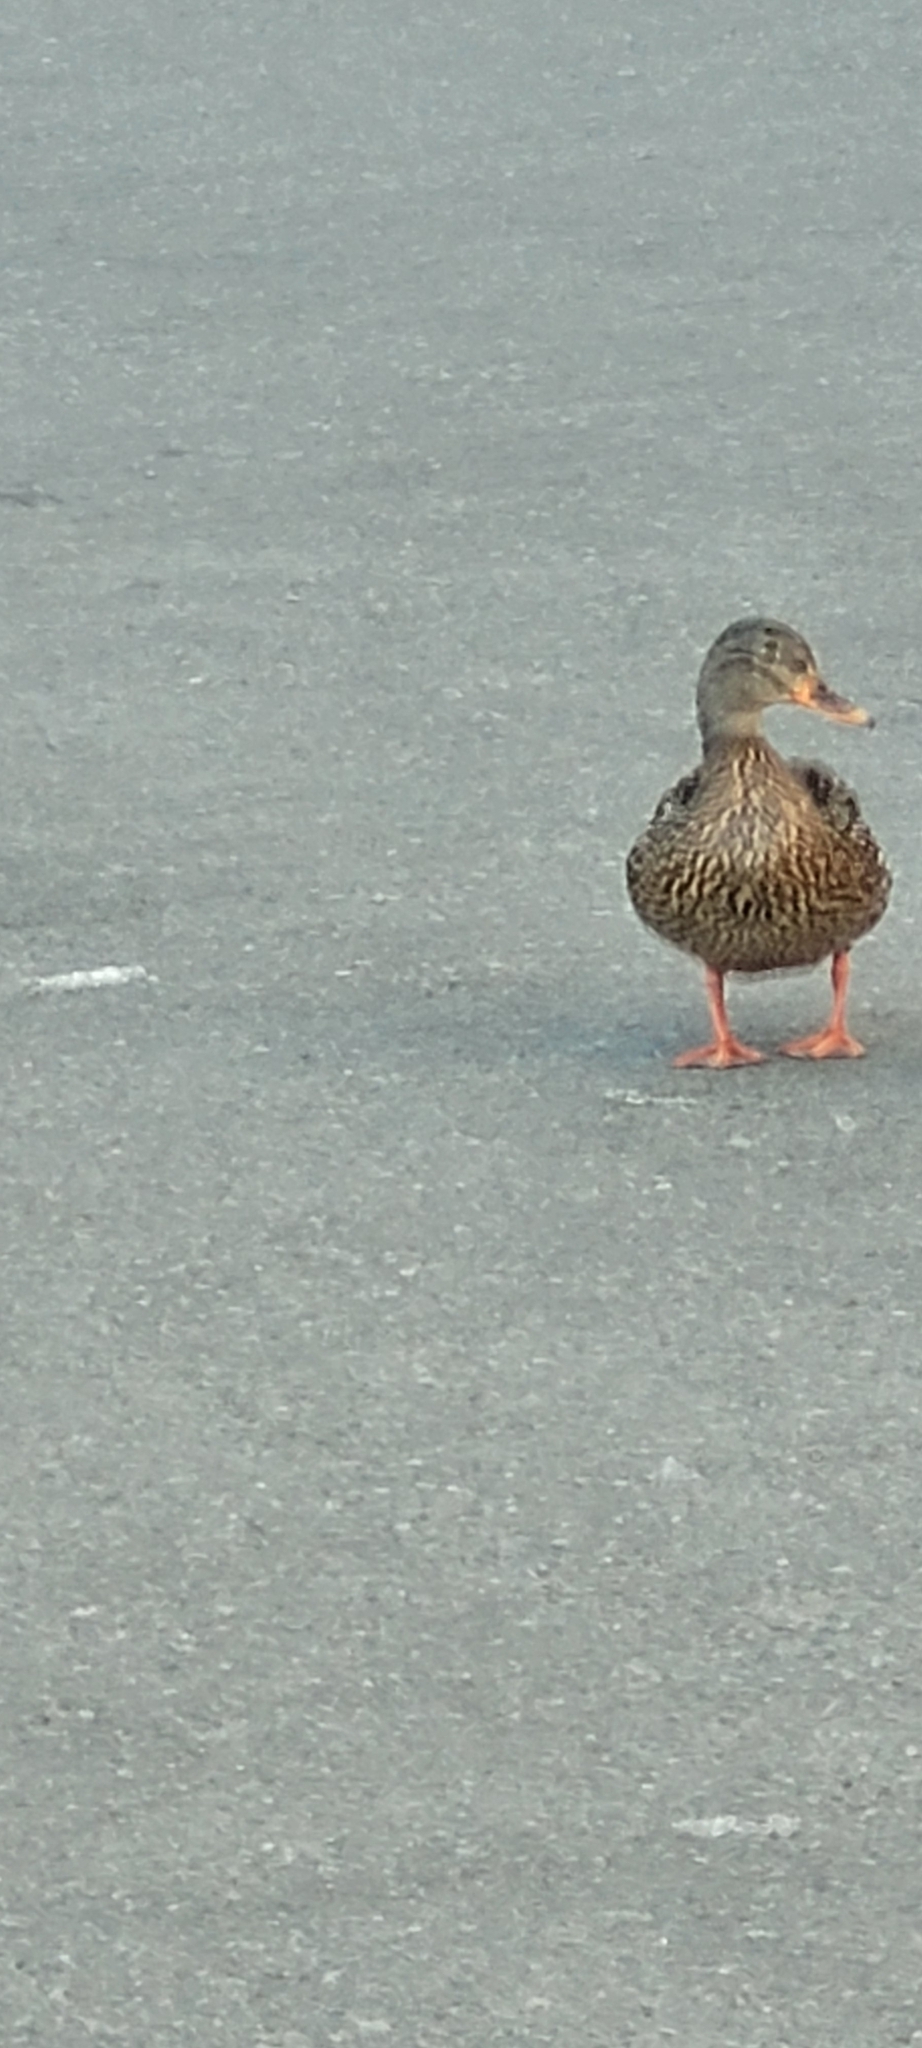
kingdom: Animalia
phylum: Chordata
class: Aves
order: Anseriformes
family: Anatidae
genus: Anas
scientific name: Anas platyrhynchos
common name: Mallard
